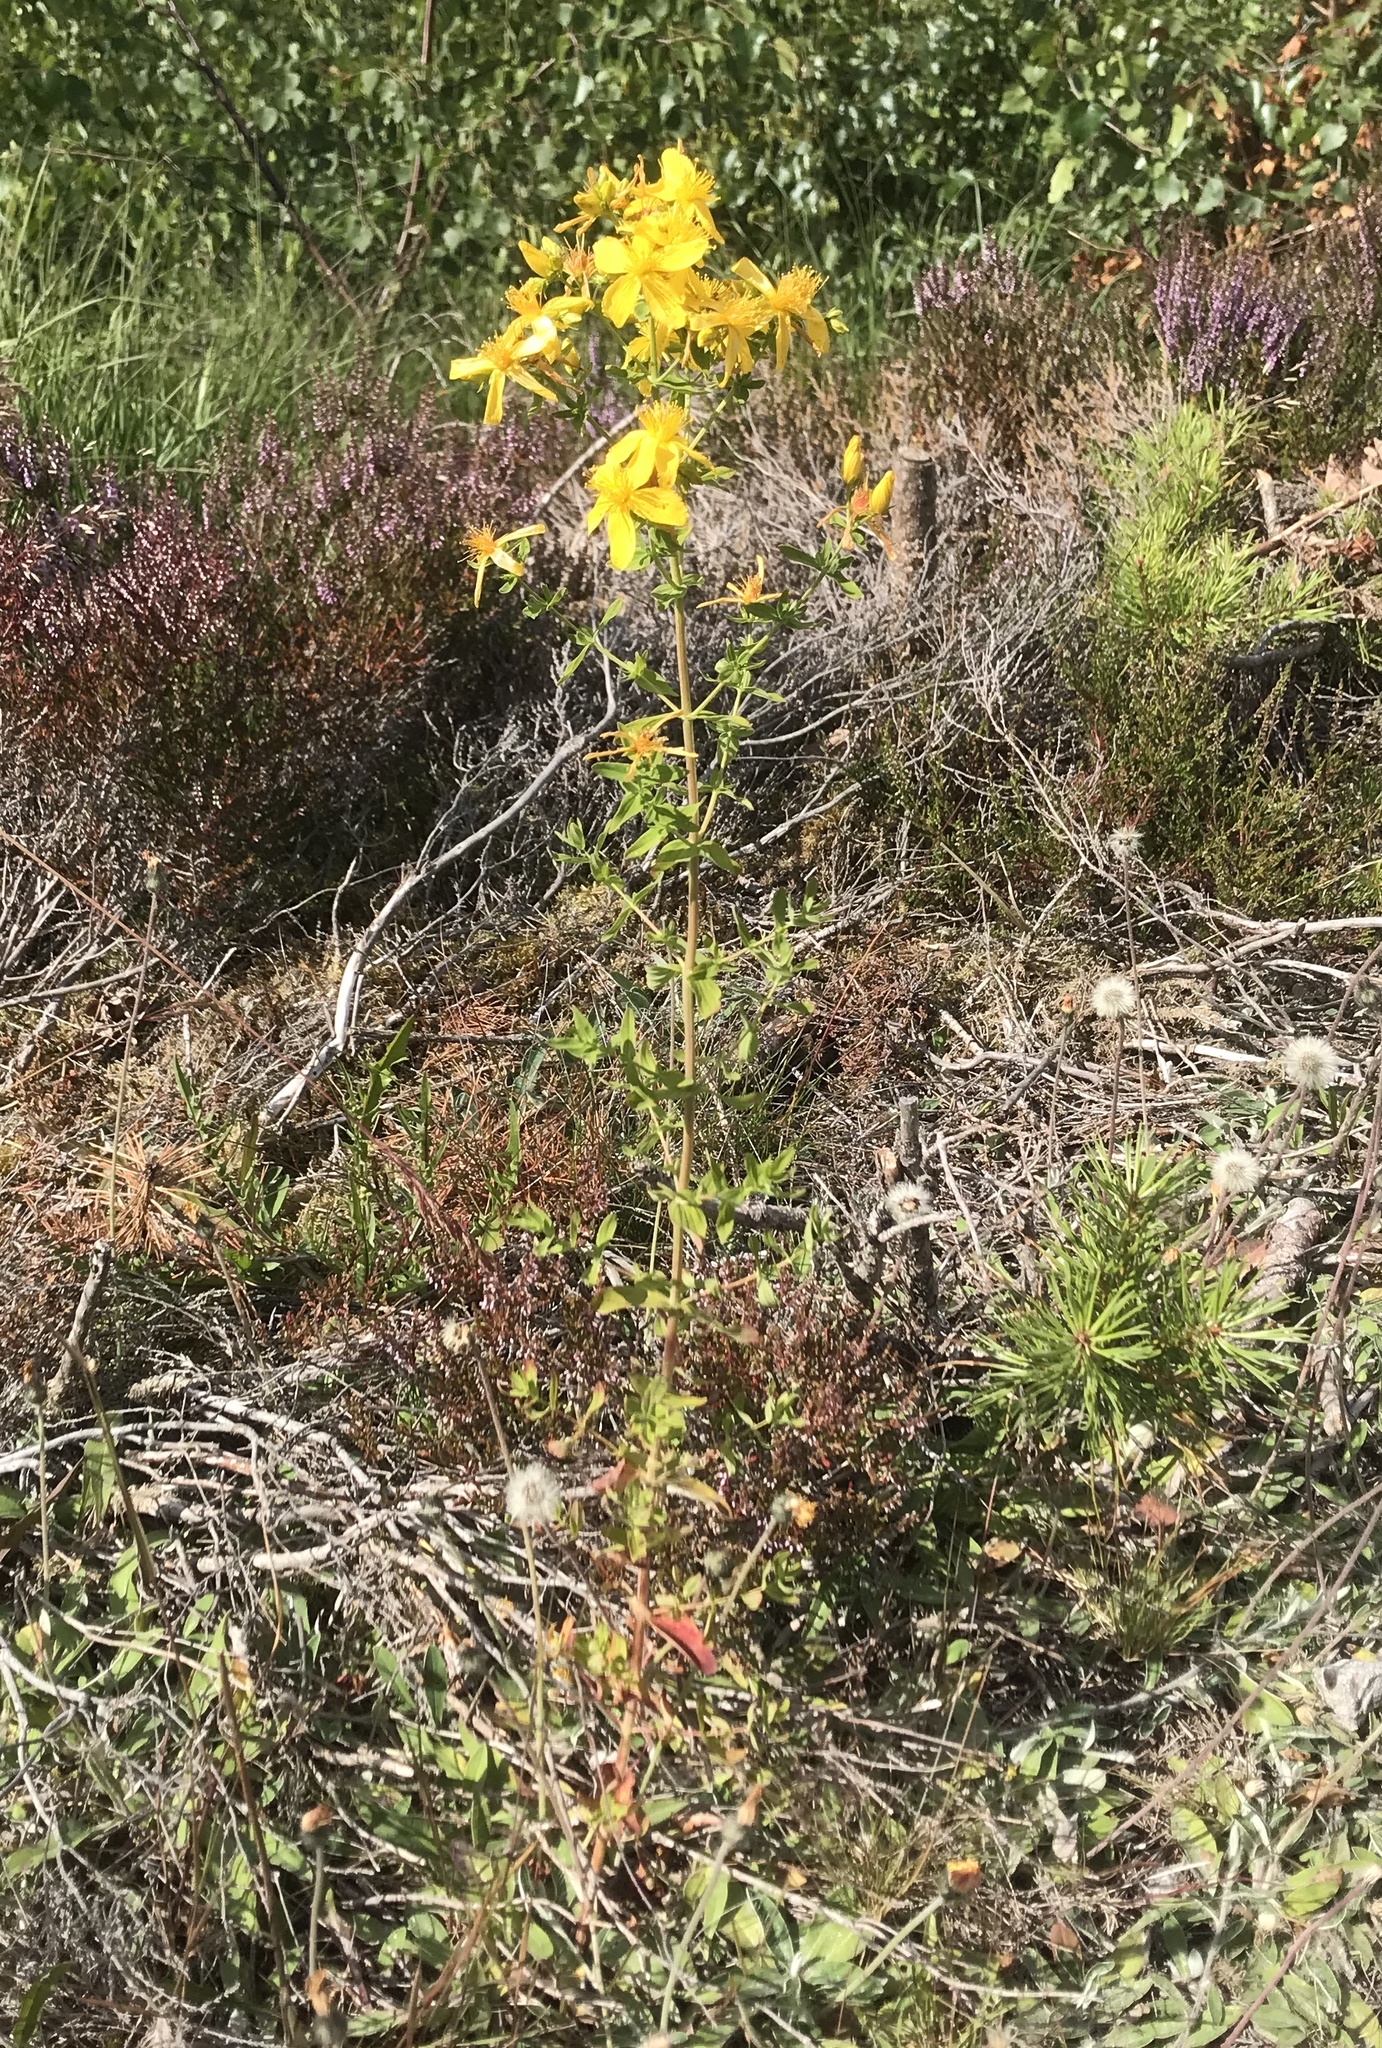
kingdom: Plantae
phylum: Tracheophyta
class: Magnoliopsida
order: Malpighiales
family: Hypericaceae
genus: Hypericum
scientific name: Hypericum perforatum
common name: Common st. johnswort
